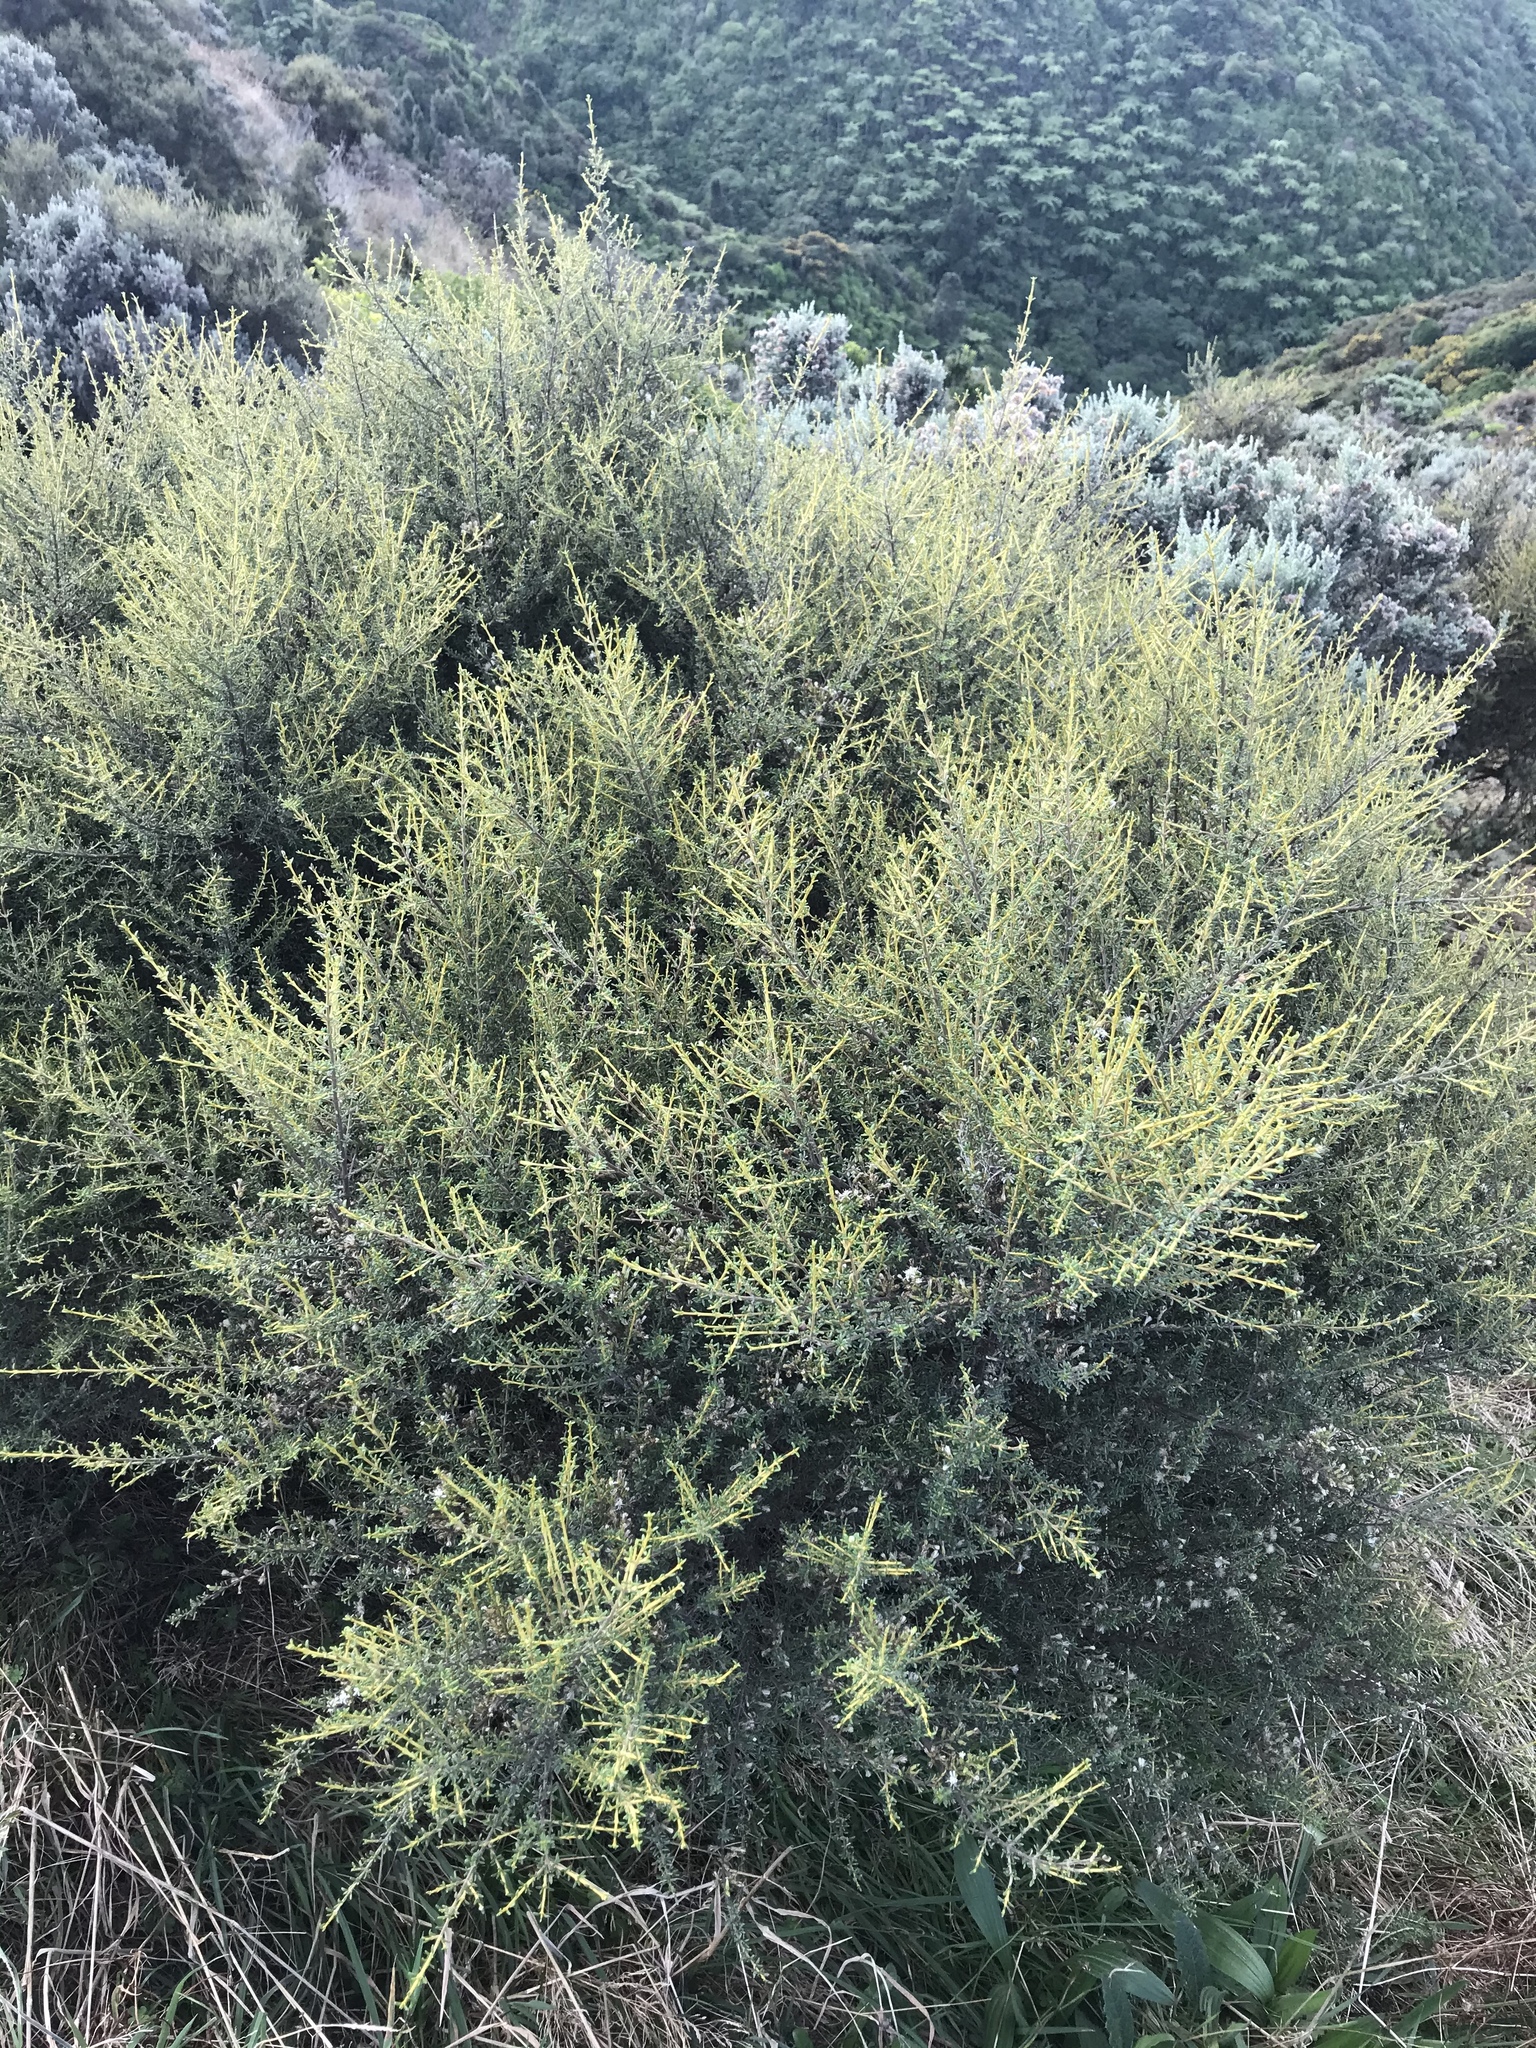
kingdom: Plantae
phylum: Tracheophyta
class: Magnoliopsida
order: Asterales
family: Asteraceae
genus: Olearia
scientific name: Olearia solandri
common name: Coastal daisybush
